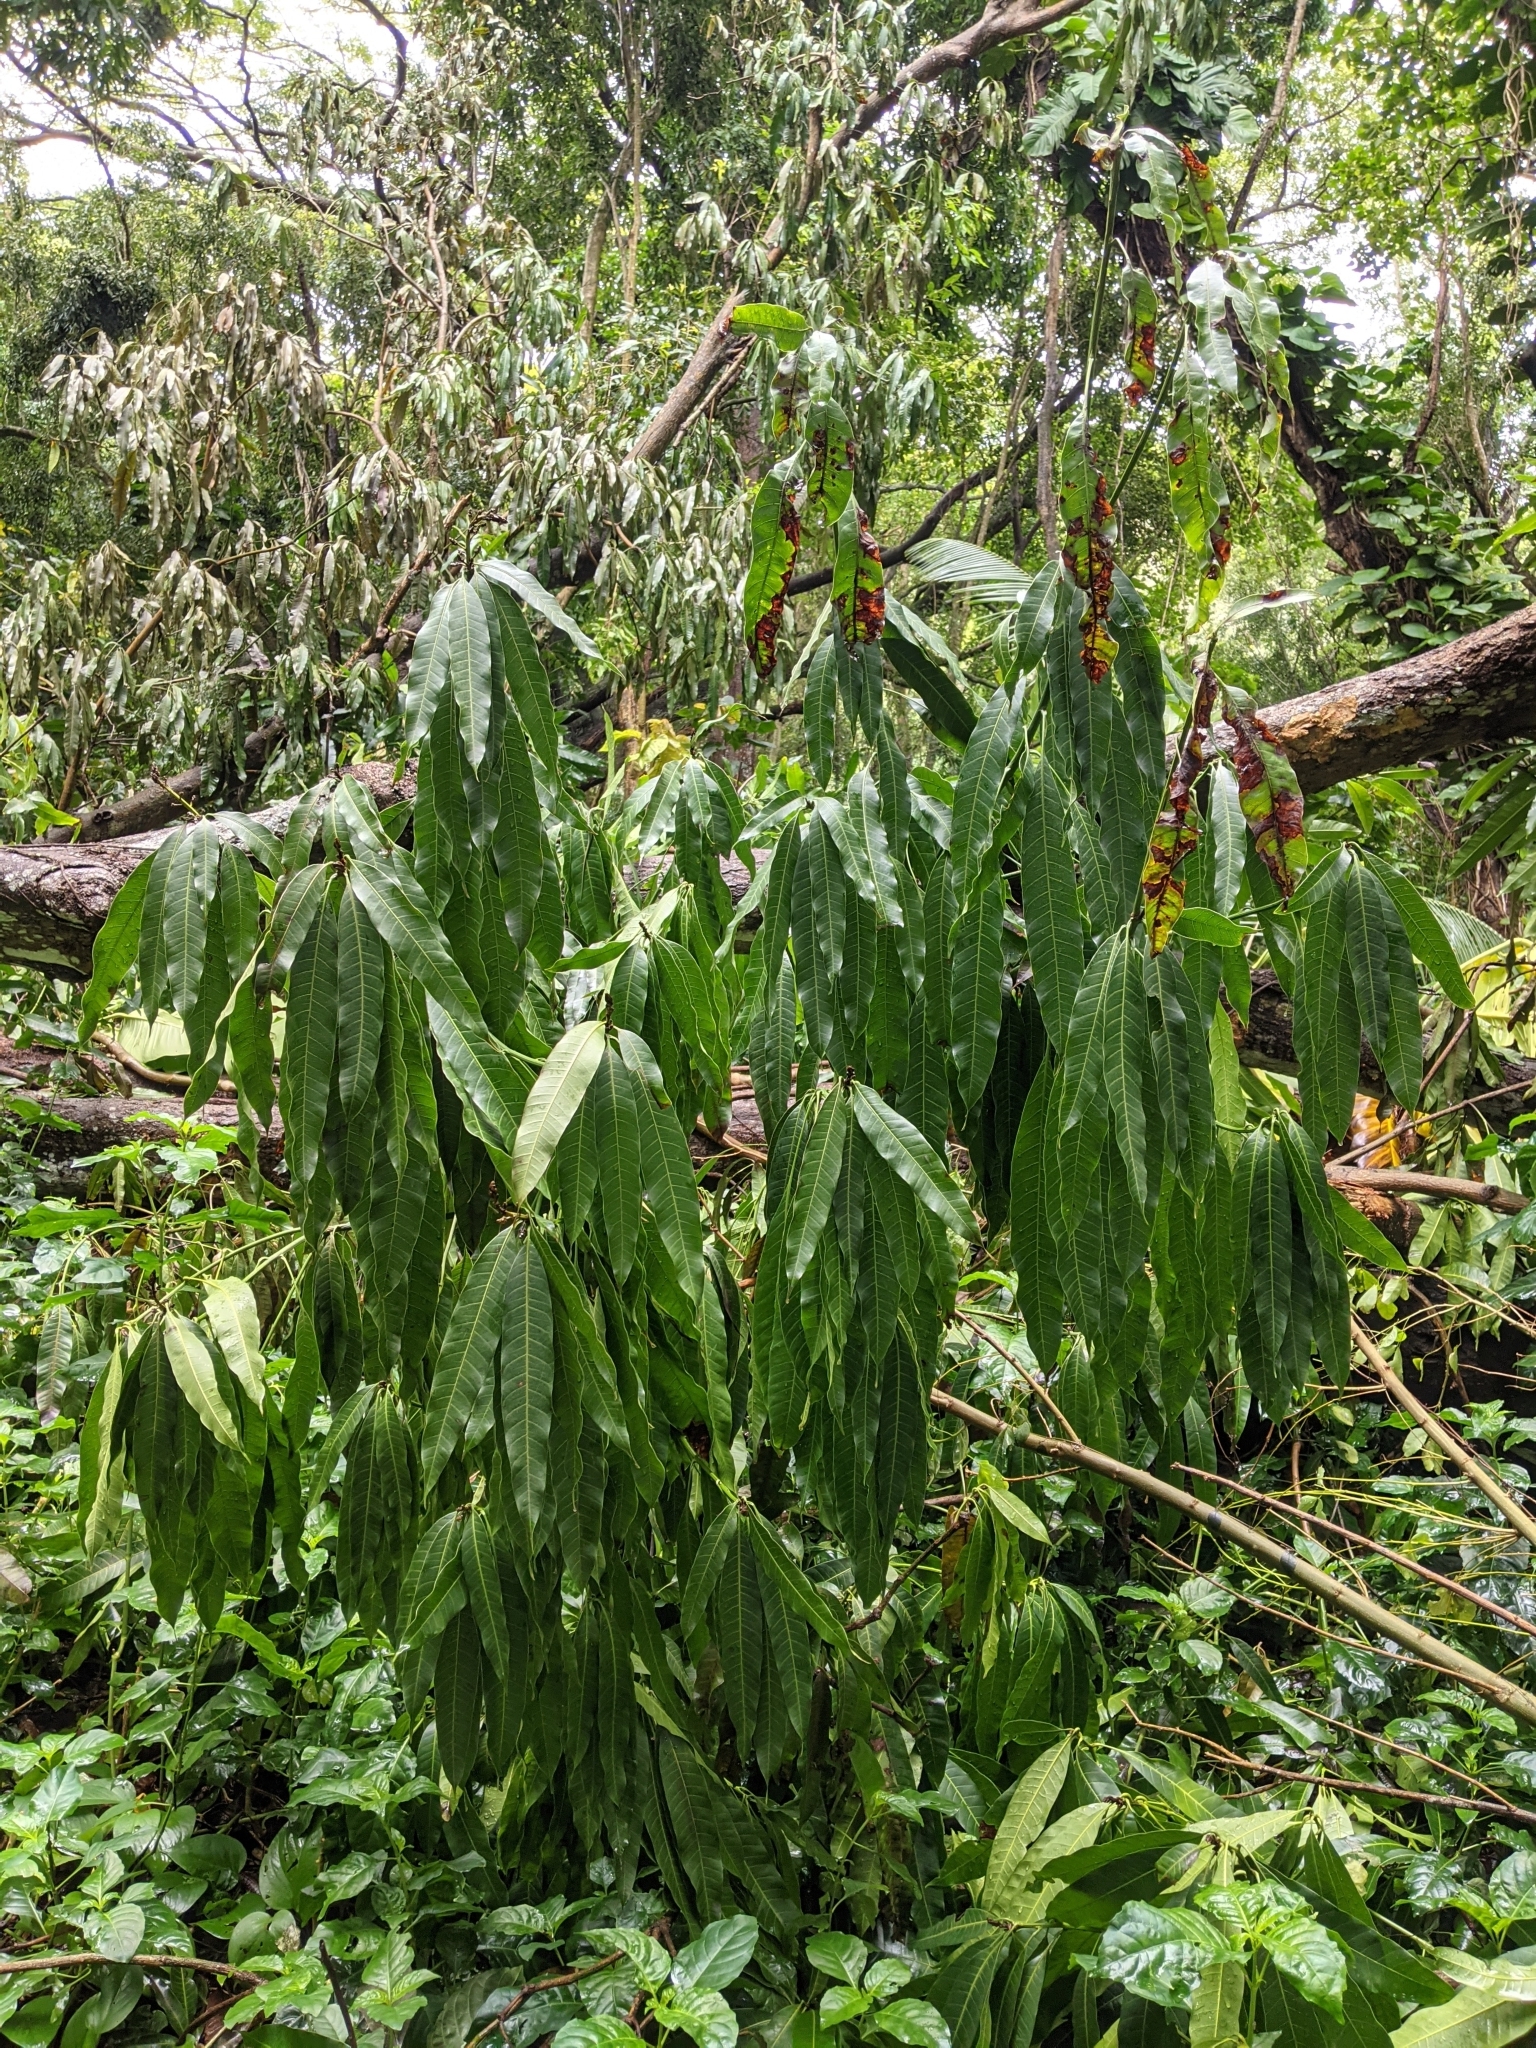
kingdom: Plantae
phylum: Tracheophyta
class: Magnoliopsida
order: Sapindales
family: Anacardiaceae
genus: Mangifera
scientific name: Mangifera indica
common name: Mango
